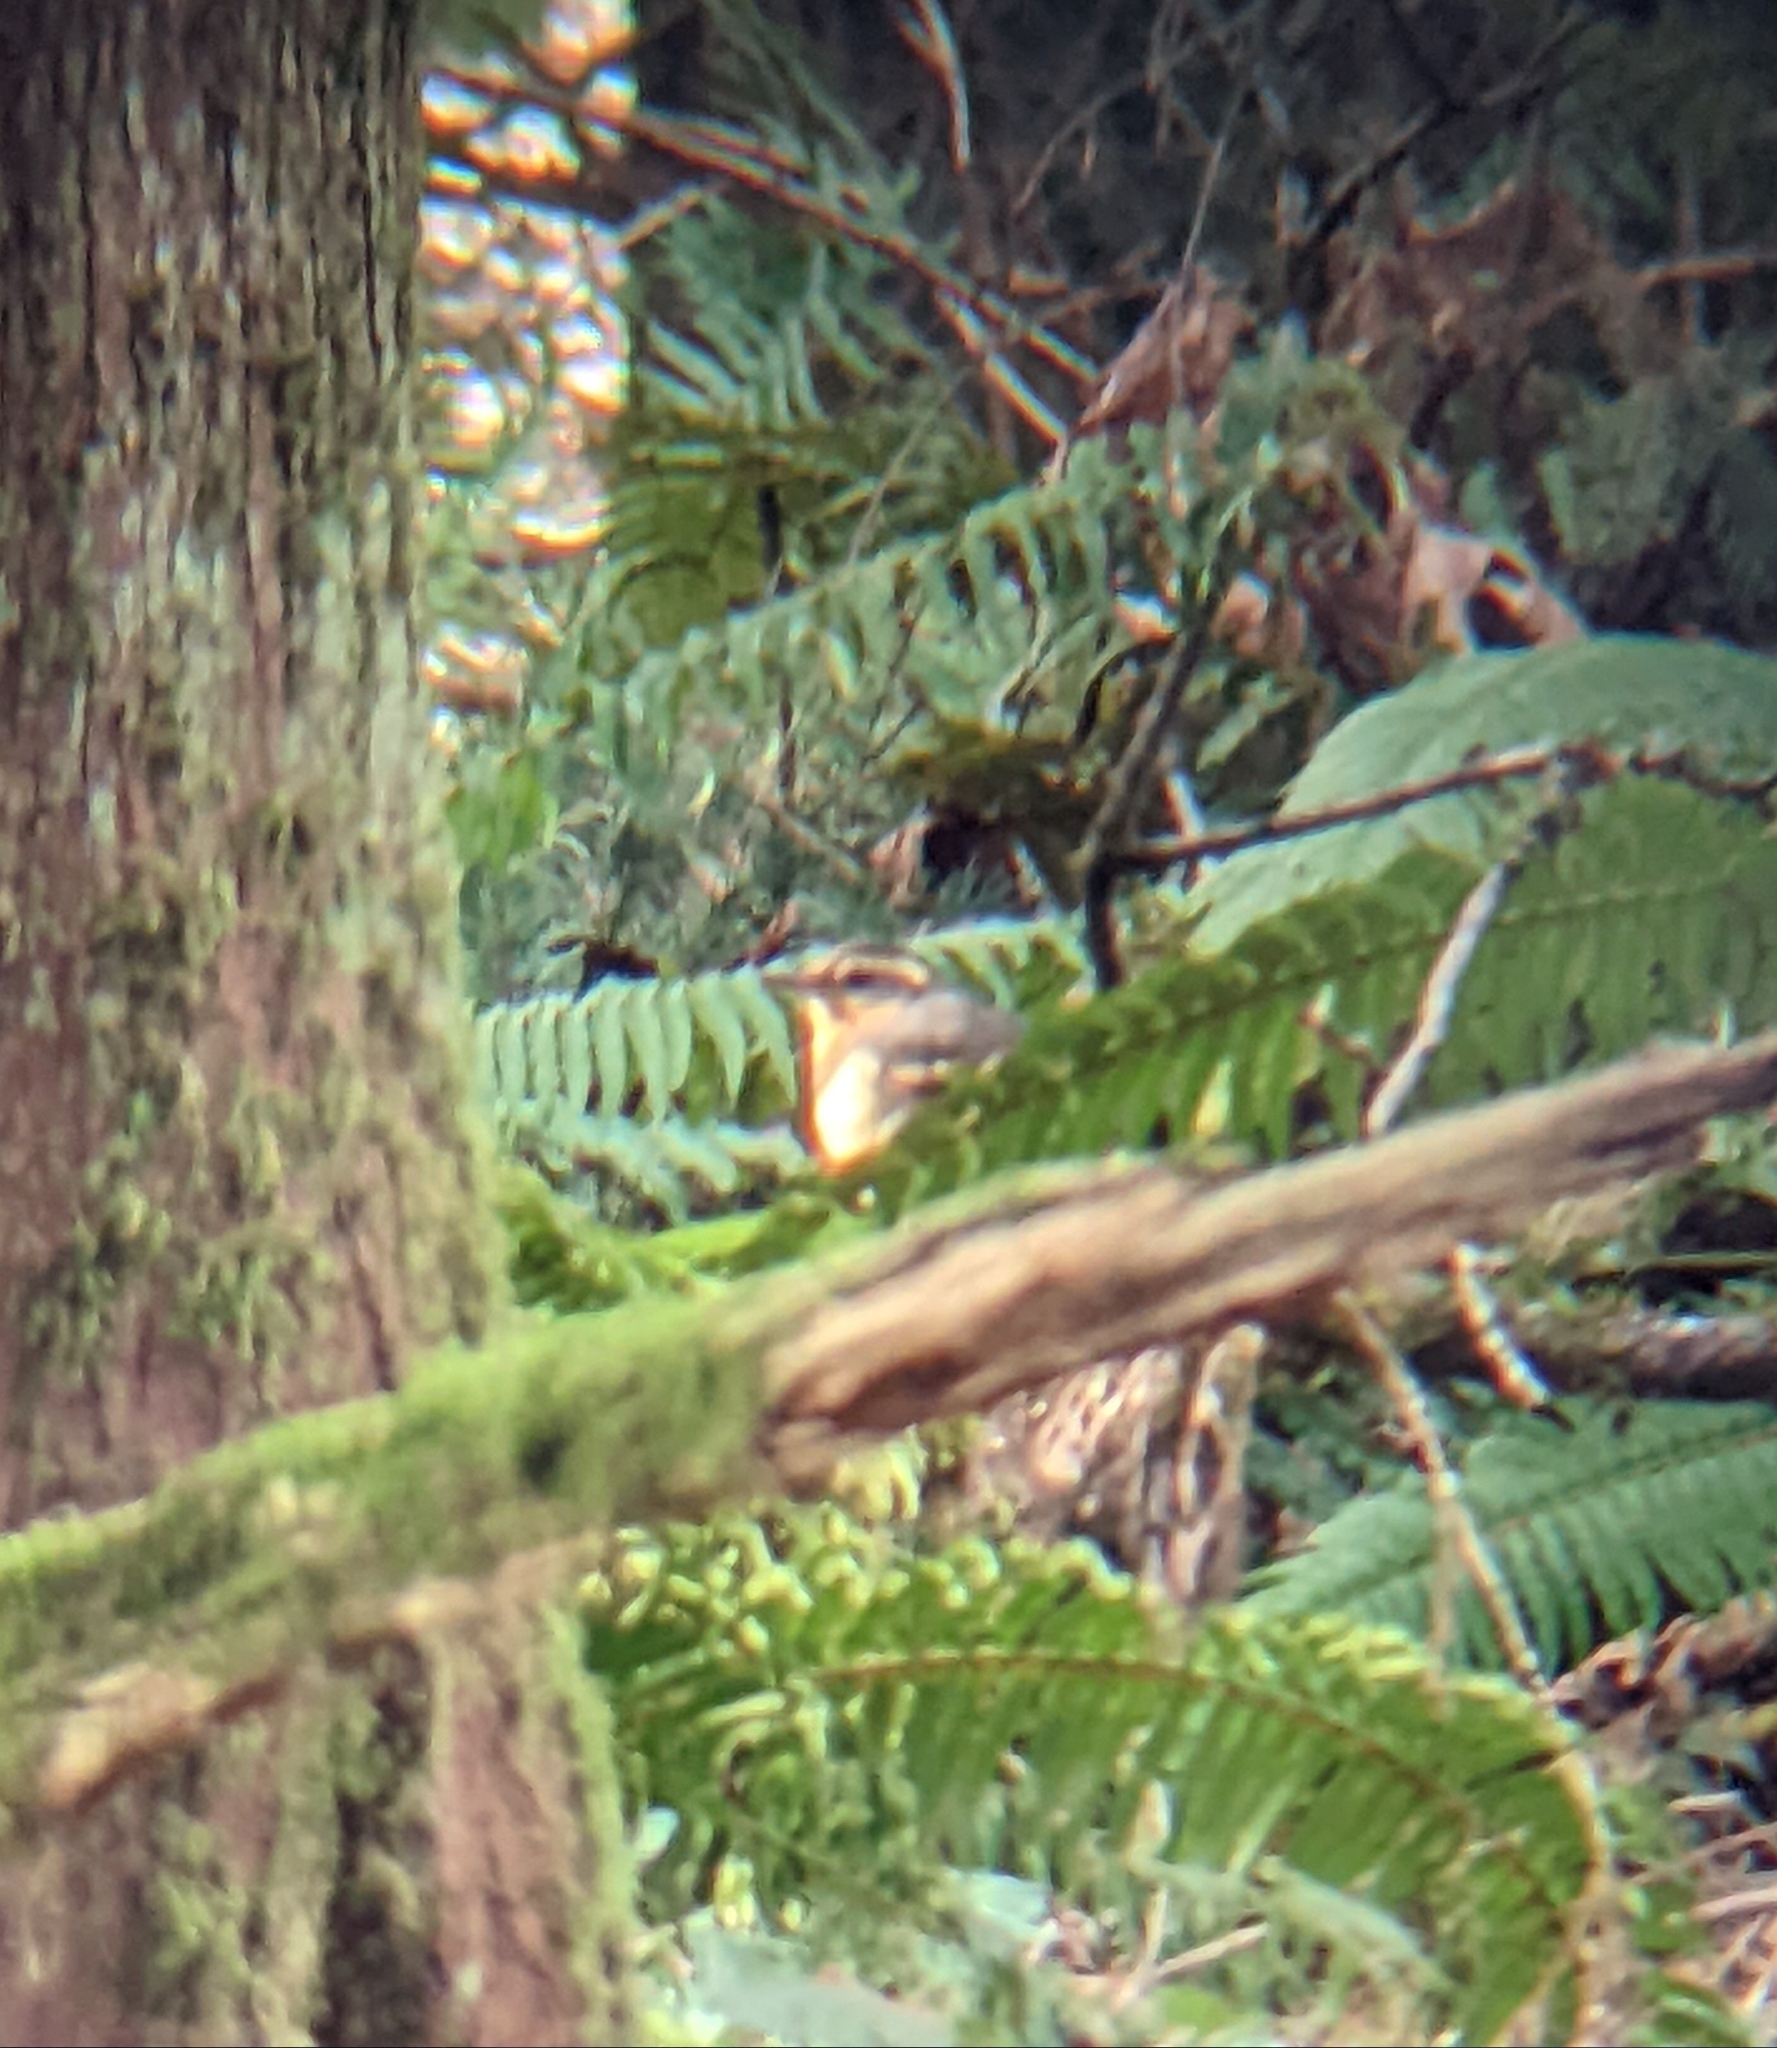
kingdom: Animalia
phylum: Chordata
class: Aves
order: Passeriformes
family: Turdidae
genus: Ixoreus
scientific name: Ixoreus naevius
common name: Varied thrush
